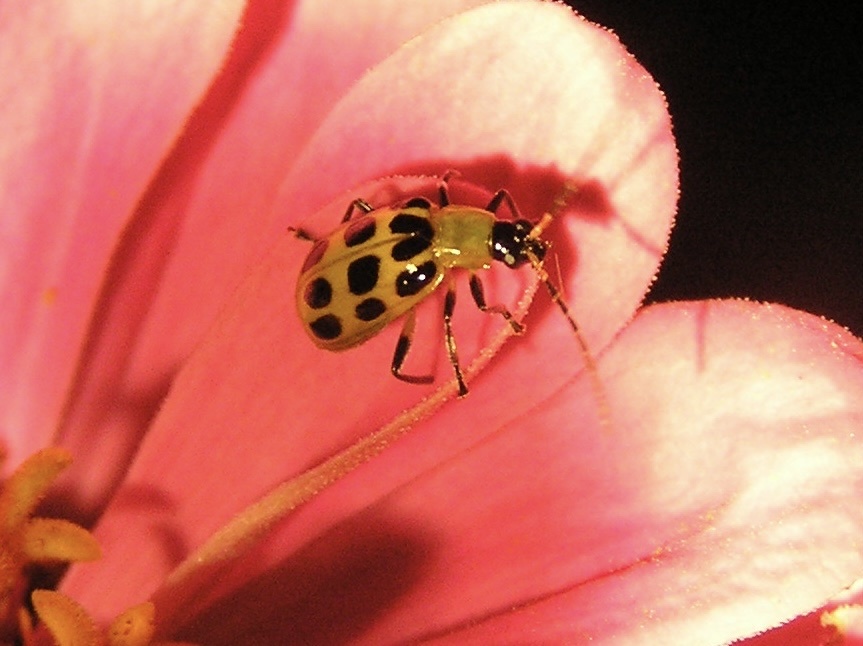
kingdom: Animalia
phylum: Arthropoda
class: Insecta
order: Coleoptera
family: Chrysomelidae
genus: Diabrotica
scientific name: Diabrotica undecimpunctata
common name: Spotted cucumber beetle
